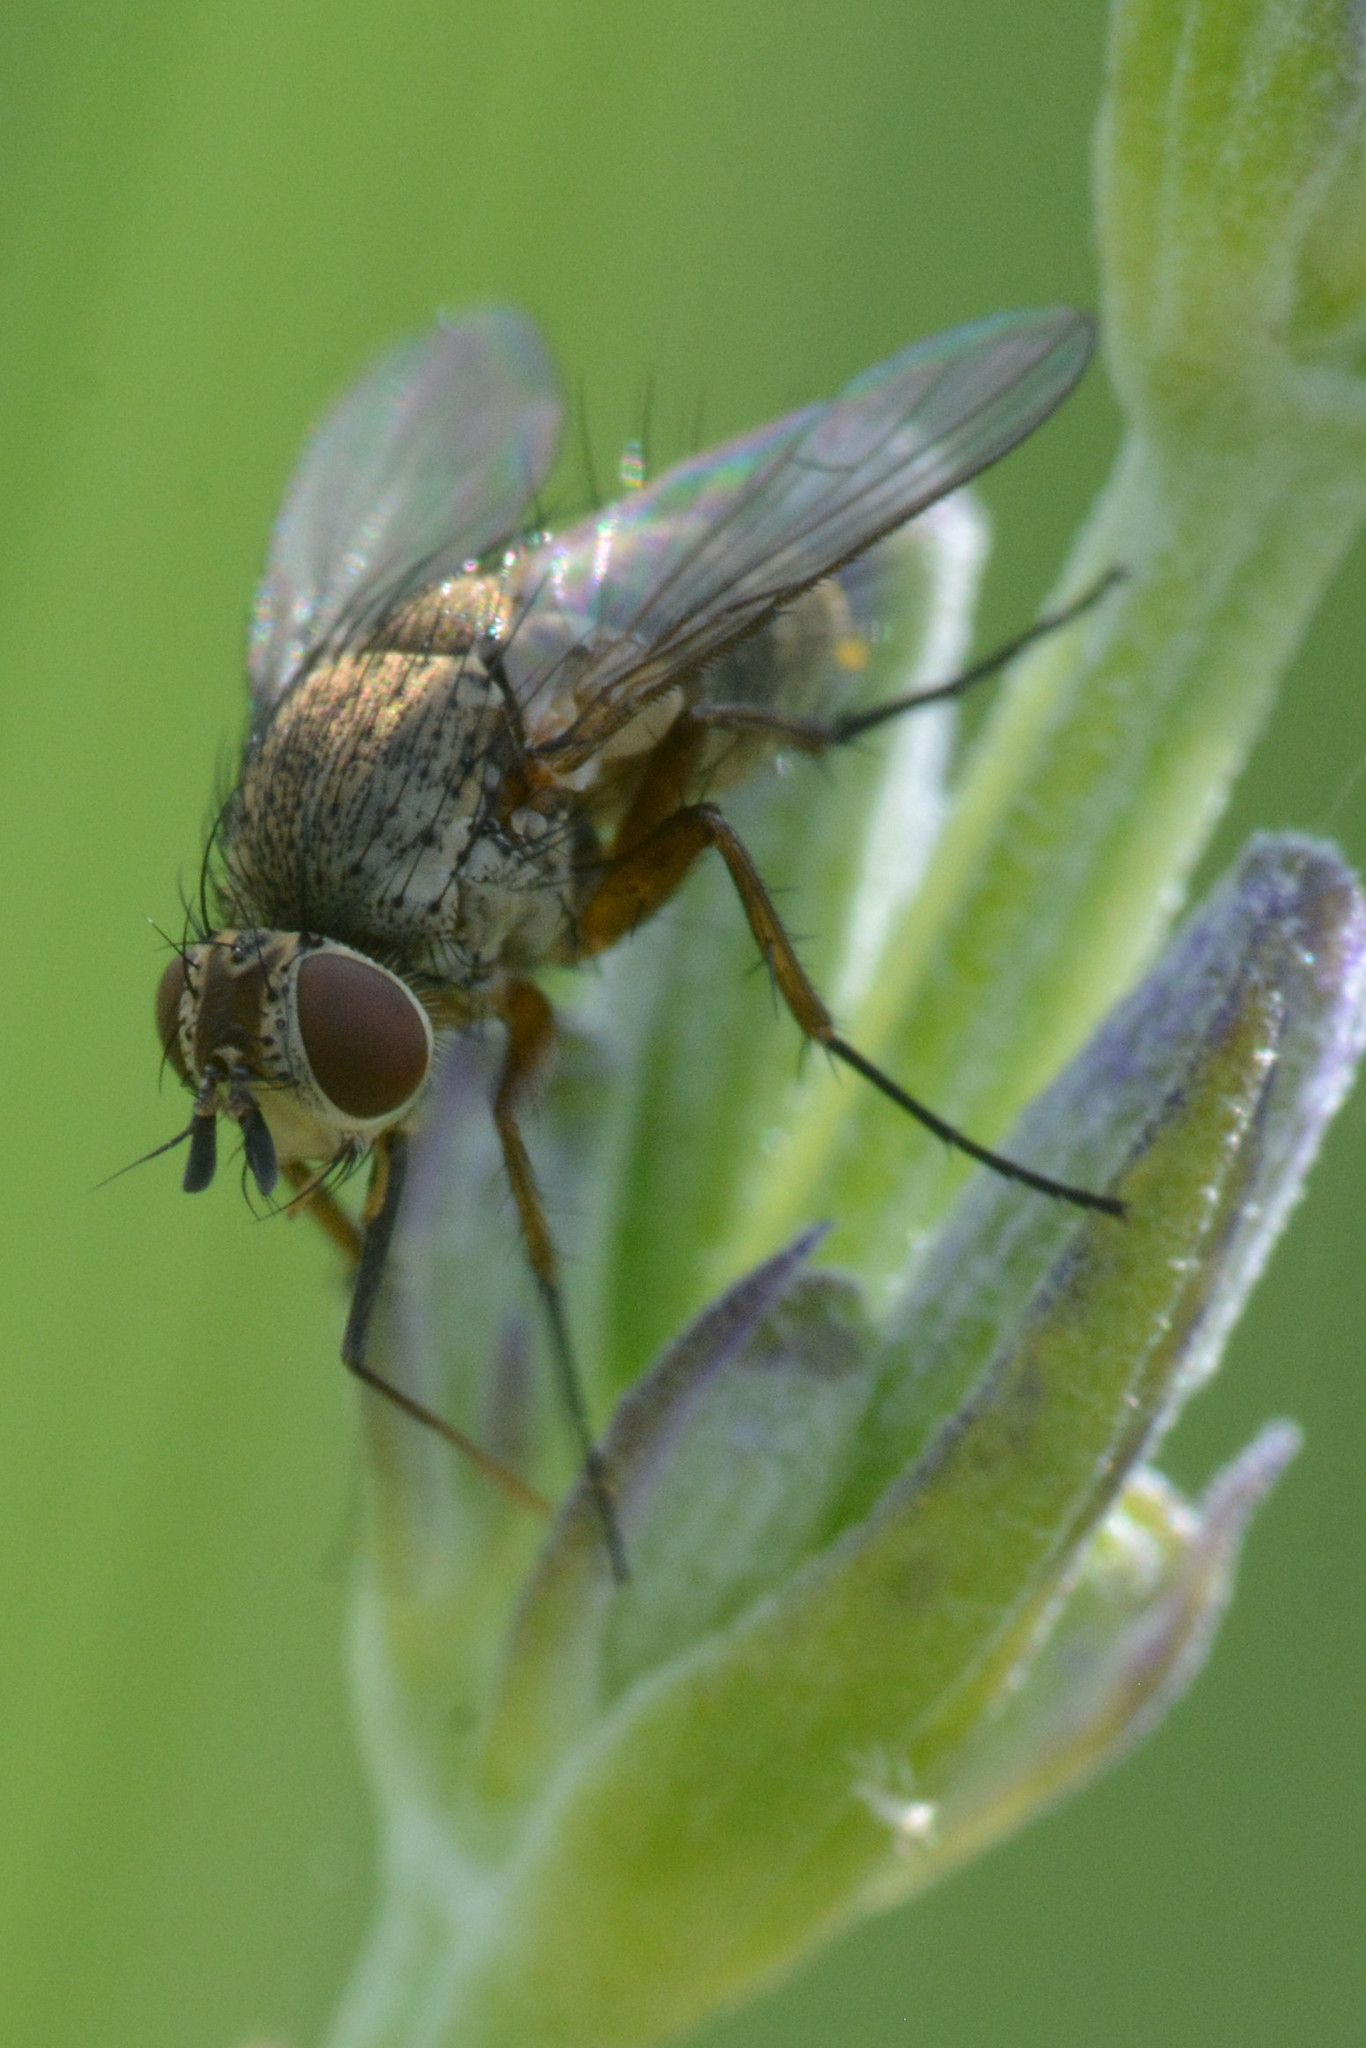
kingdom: Animalia
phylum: Arthropoda
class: Insecta
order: Diptera
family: Tachinidae
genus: Siphona
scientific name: Siphona
